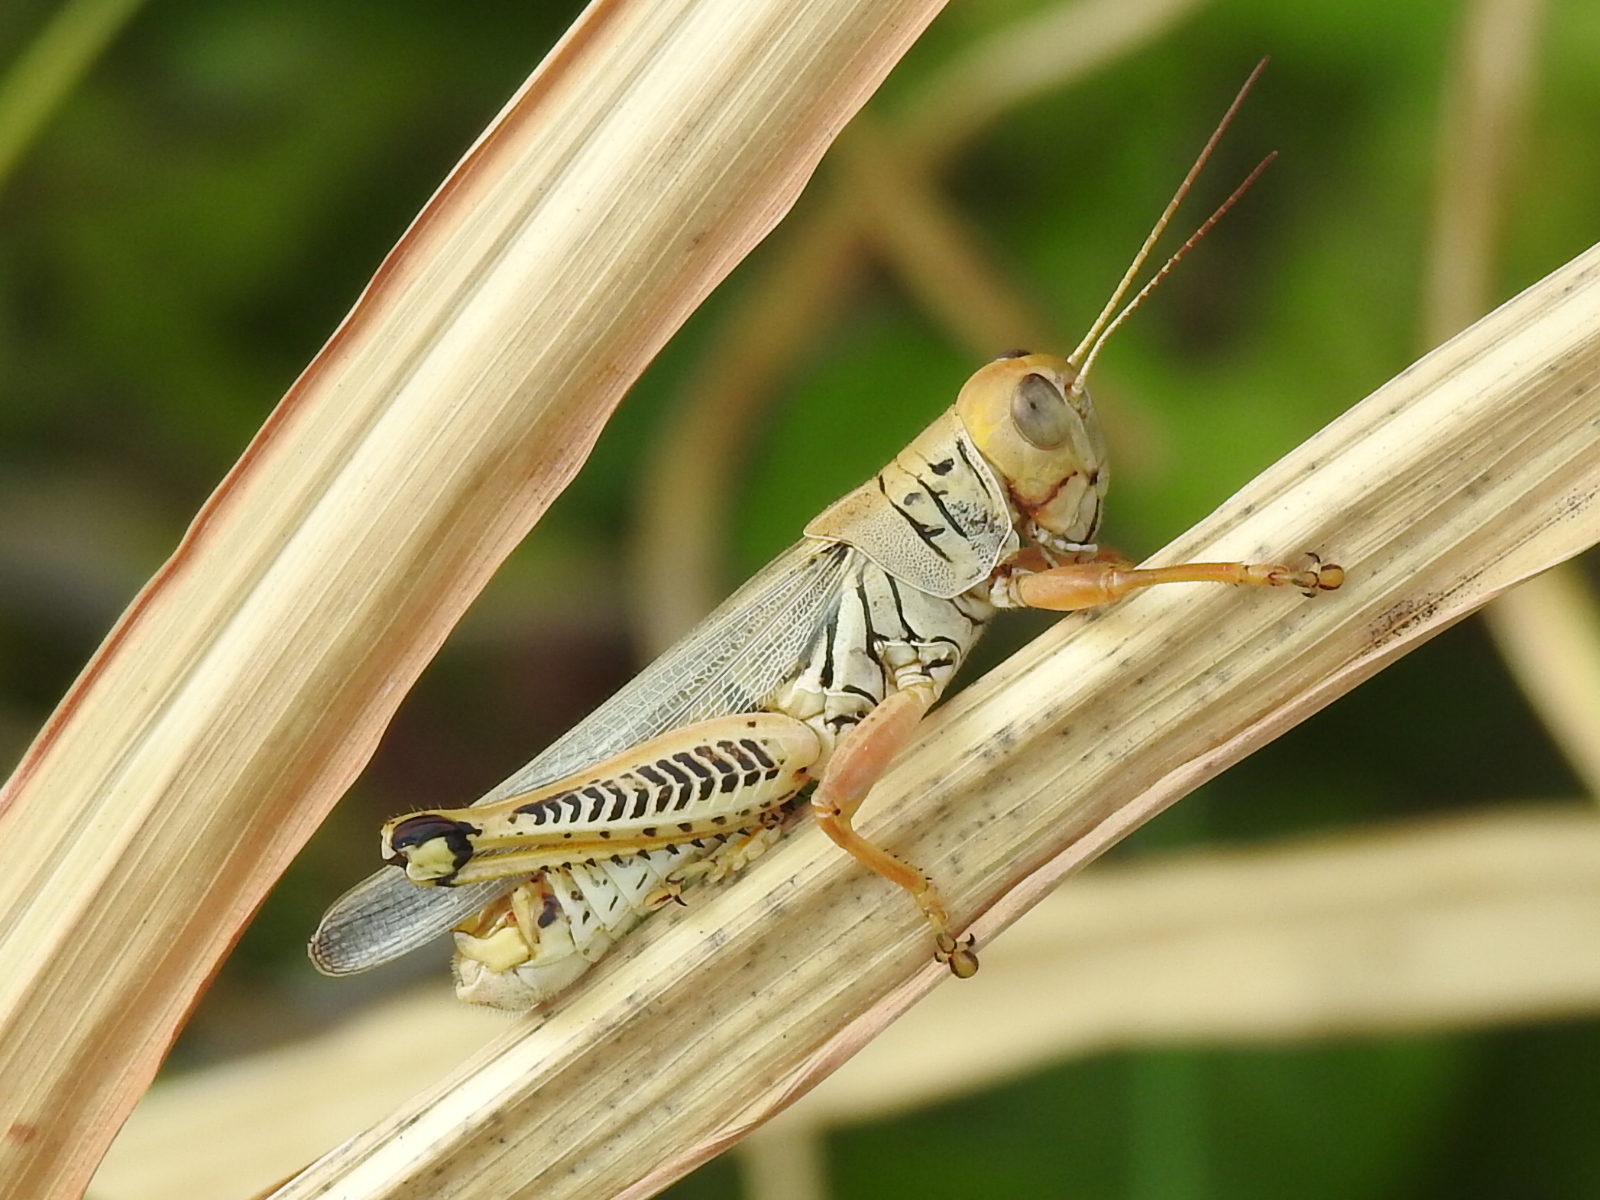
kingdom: Animalia
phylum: Arthropoda
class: Insecta
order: Orthoptera
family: Acrididae
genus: Melanoplus
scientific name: Melanoplus differentialis
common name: Differential grasshopper
